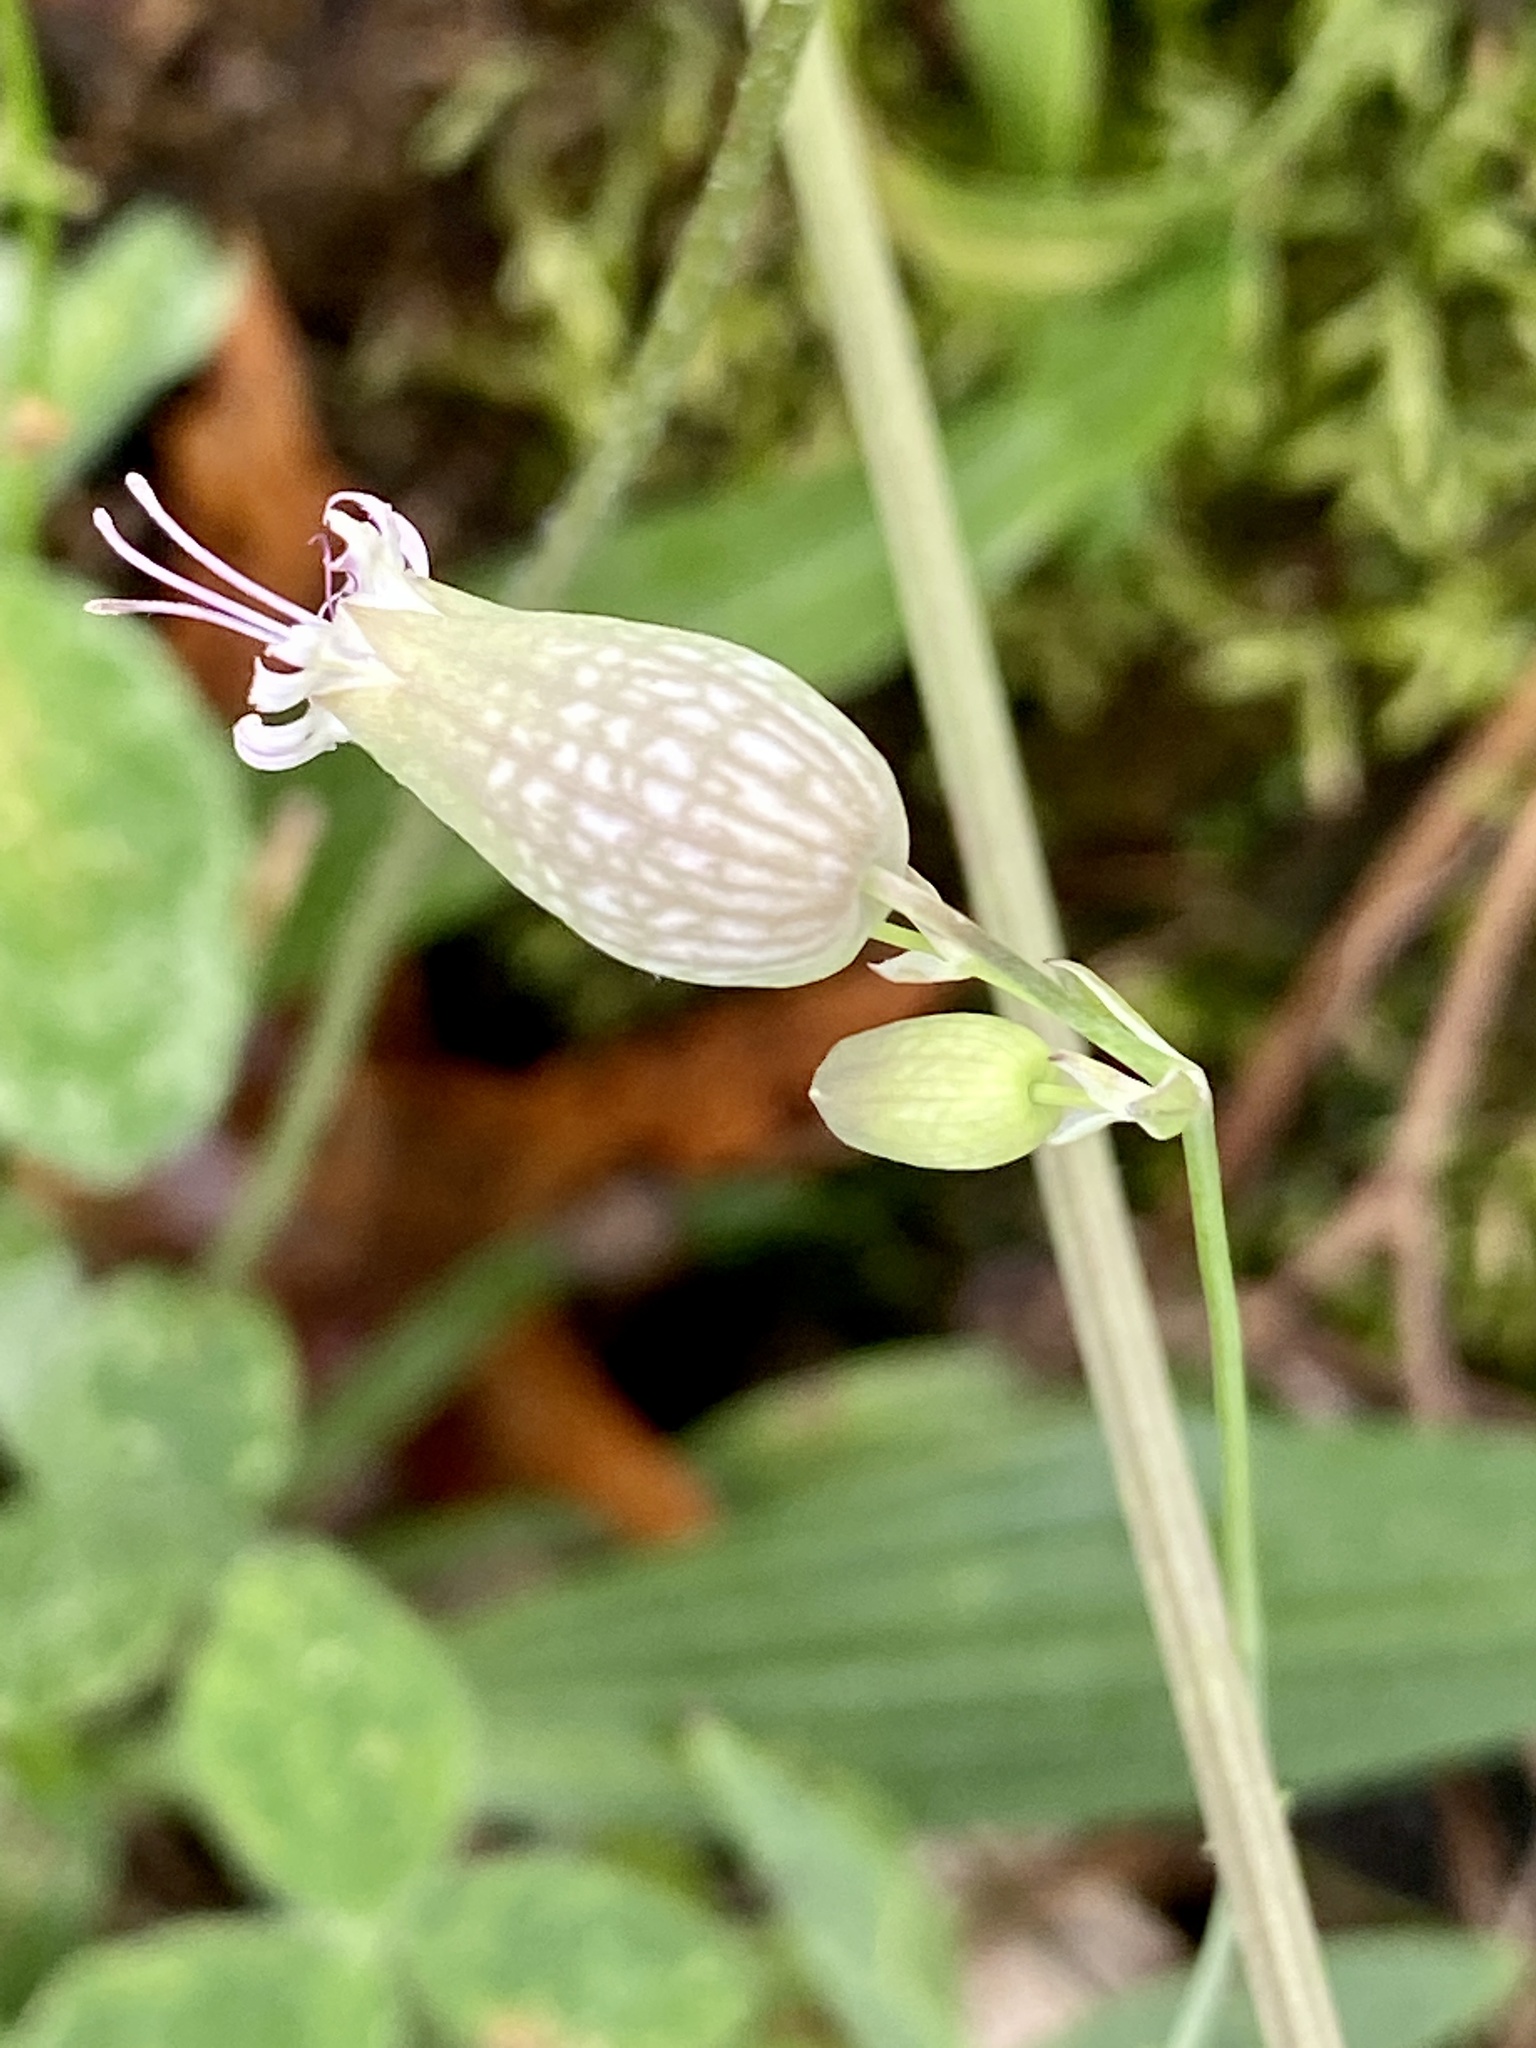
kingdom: Plantae
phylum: Tracheophyta
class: Magnoliopsida
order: Caryophyllales
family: Caryophyllaceae
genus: Silene
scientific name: Silene vulgaris
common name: Bladder campion
